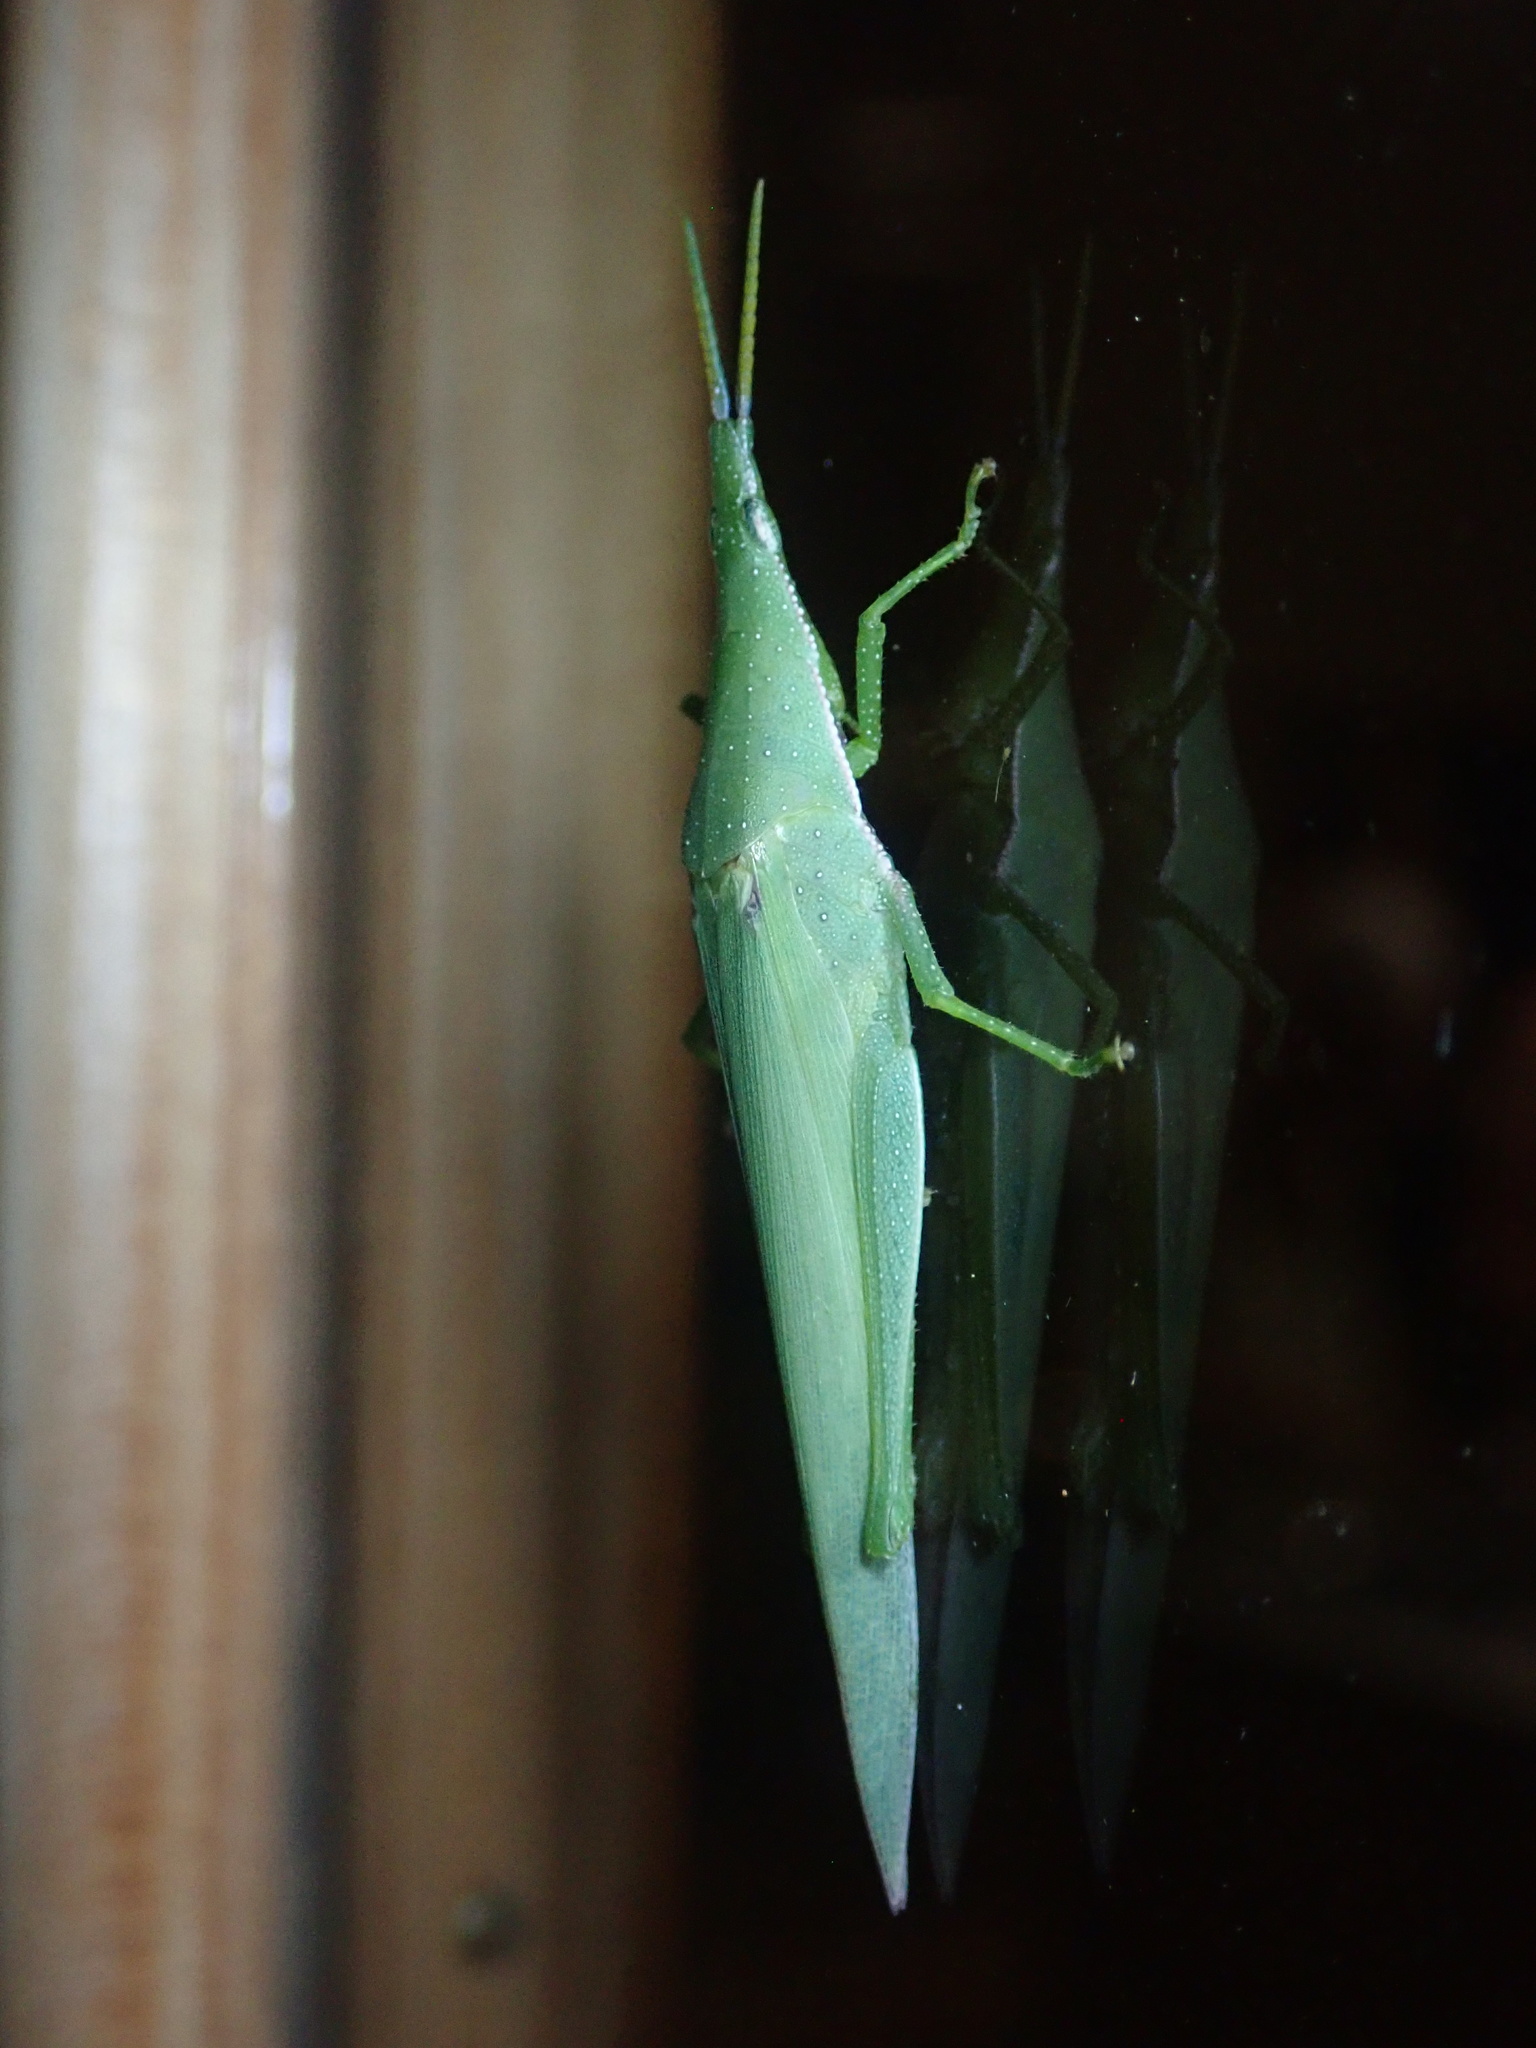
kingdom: Animalia
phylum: Arthropoda
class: Insecta
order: Orthoptera
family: Pyrgomorphidae
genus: Atractomorpha
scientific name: Atractomorpha similis
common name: Northern grass pyrgomorph
